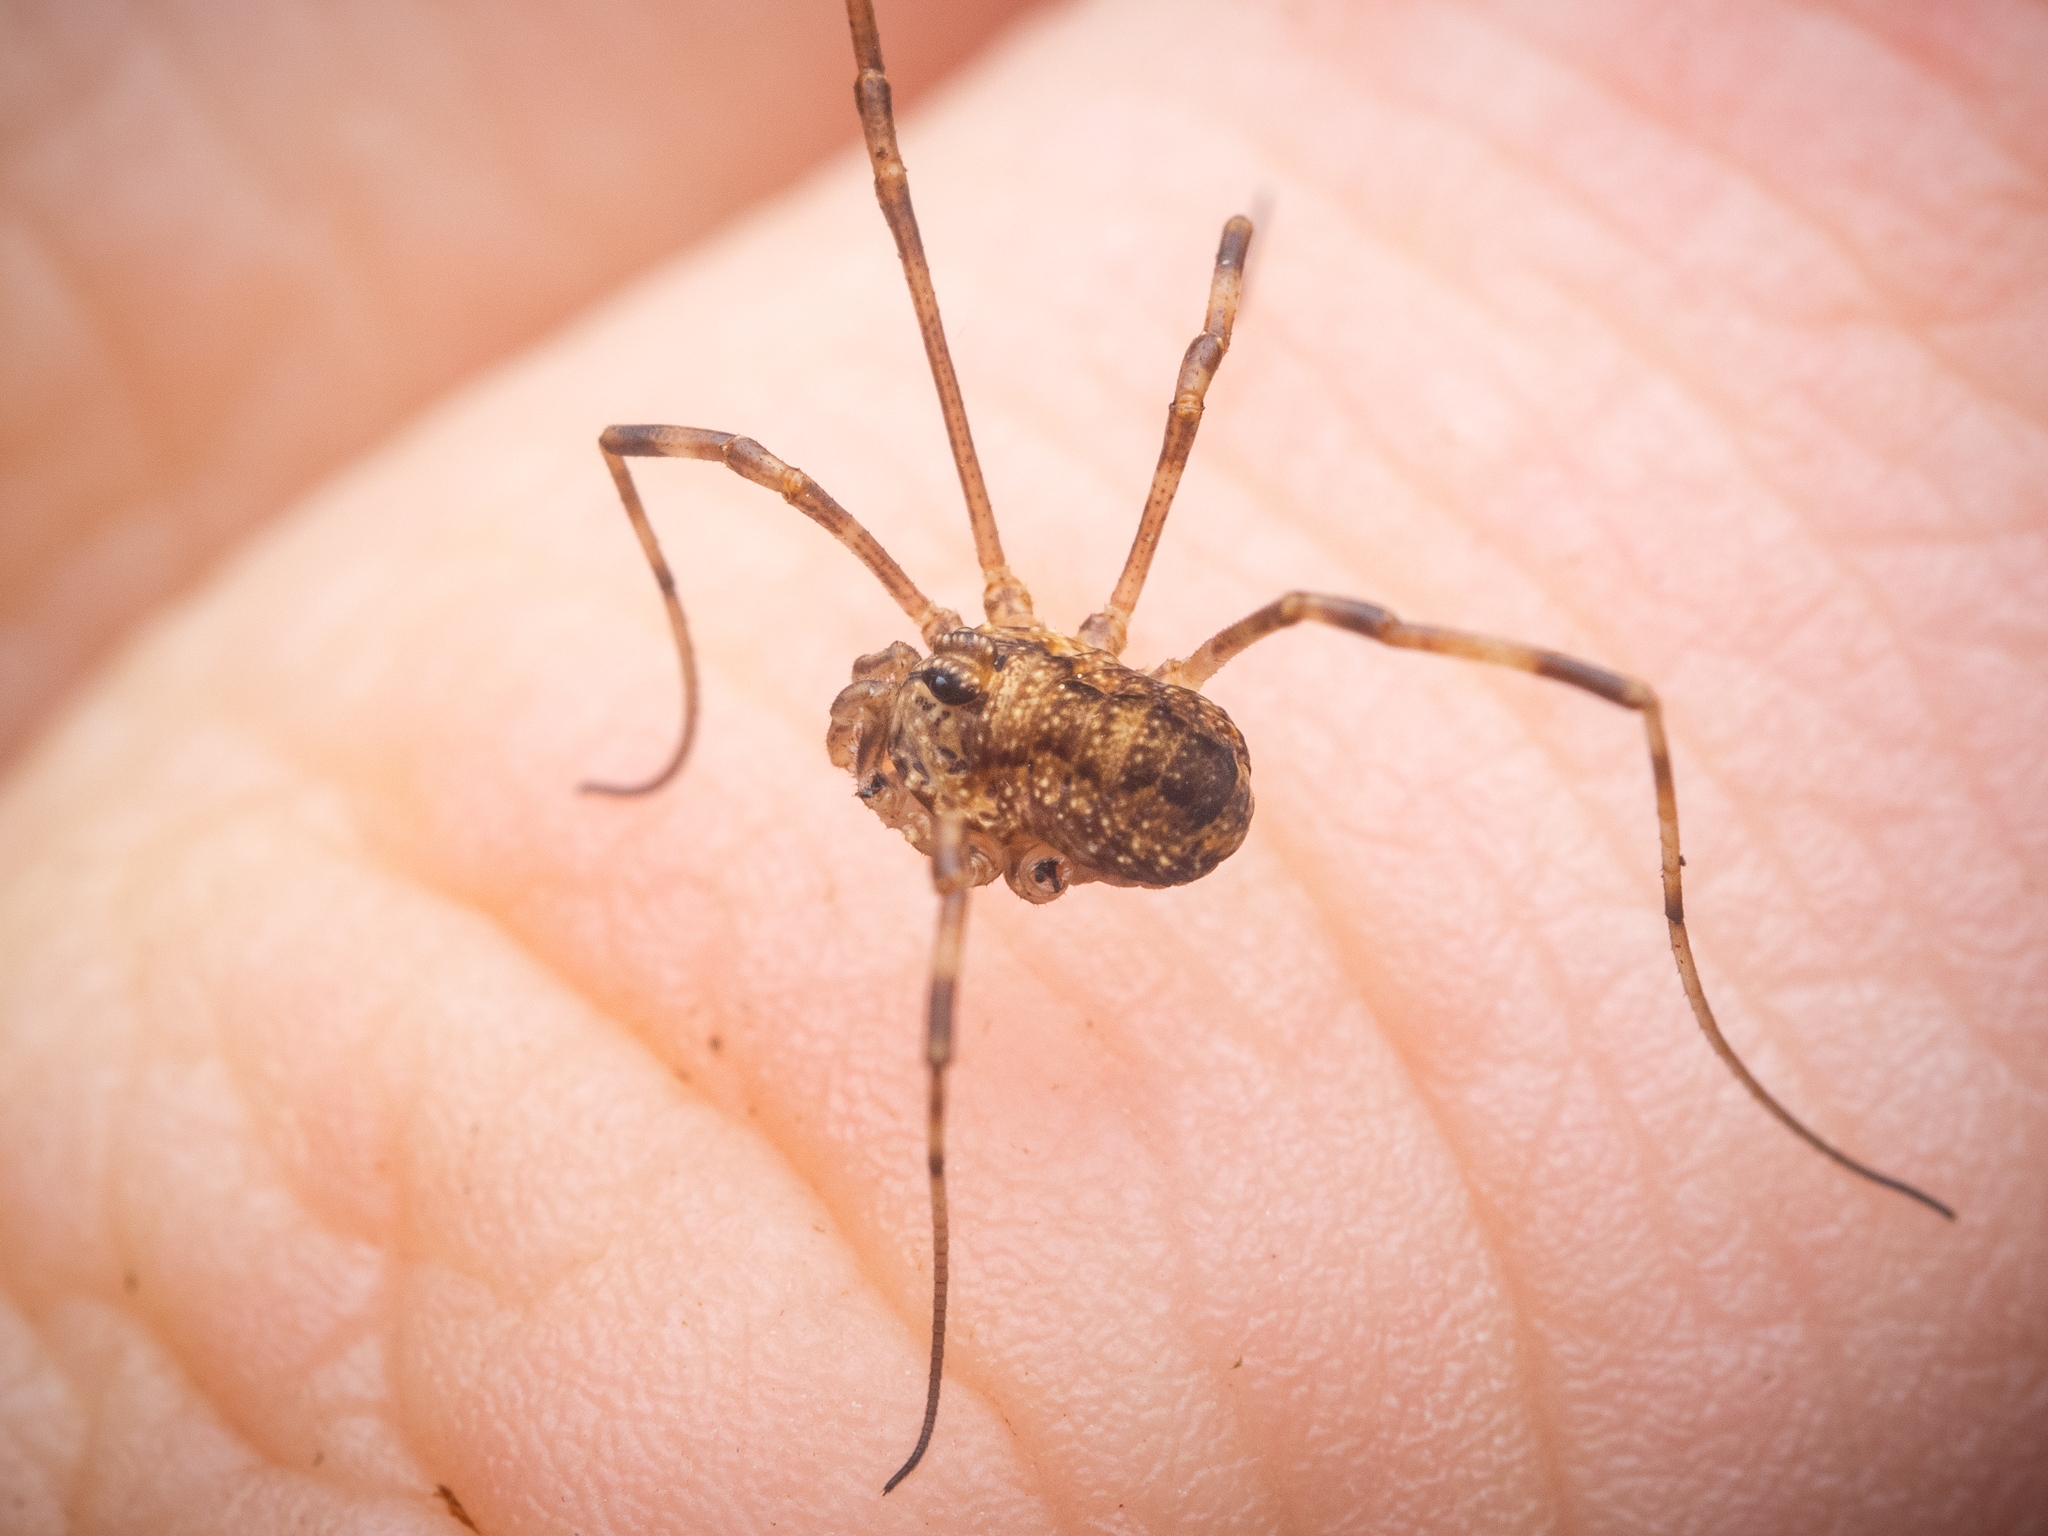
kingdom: Animalia
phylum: Arthropoda
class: Arachnida
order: Opiliones
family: Phalangiidae
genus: Rilaena
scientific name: Rilaena triangularis
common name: Spring harvestman
